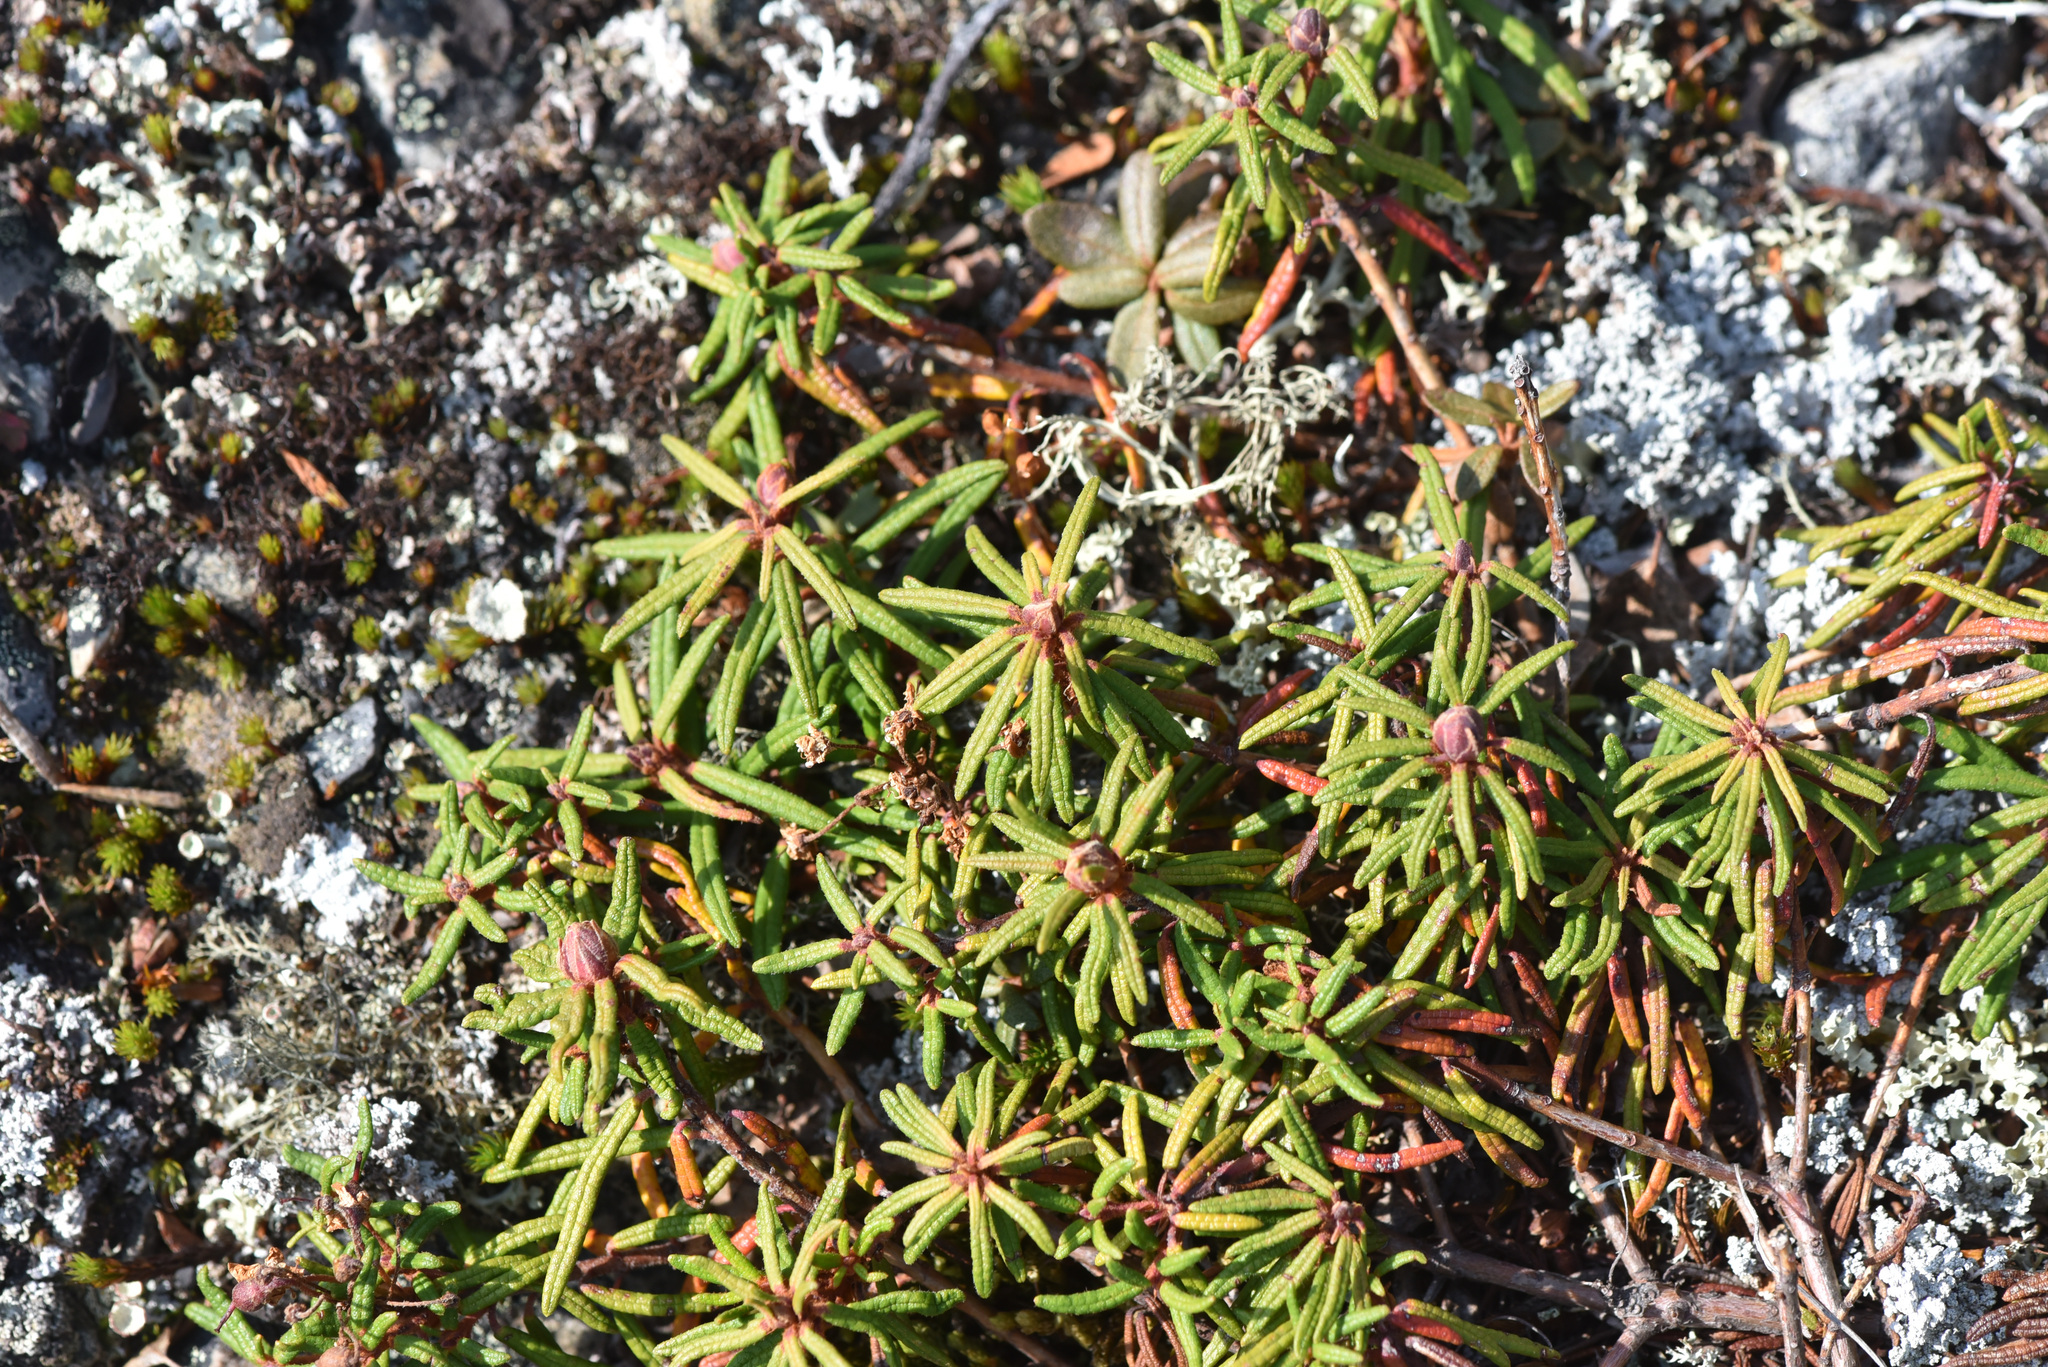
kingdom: Plantae
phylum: Tracheophyta
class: Magnoliopsida
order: Ericales
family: Ericaceae
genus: Rhododendron
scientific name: Rhododendron groenlandicum
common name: Bog labrador tea
